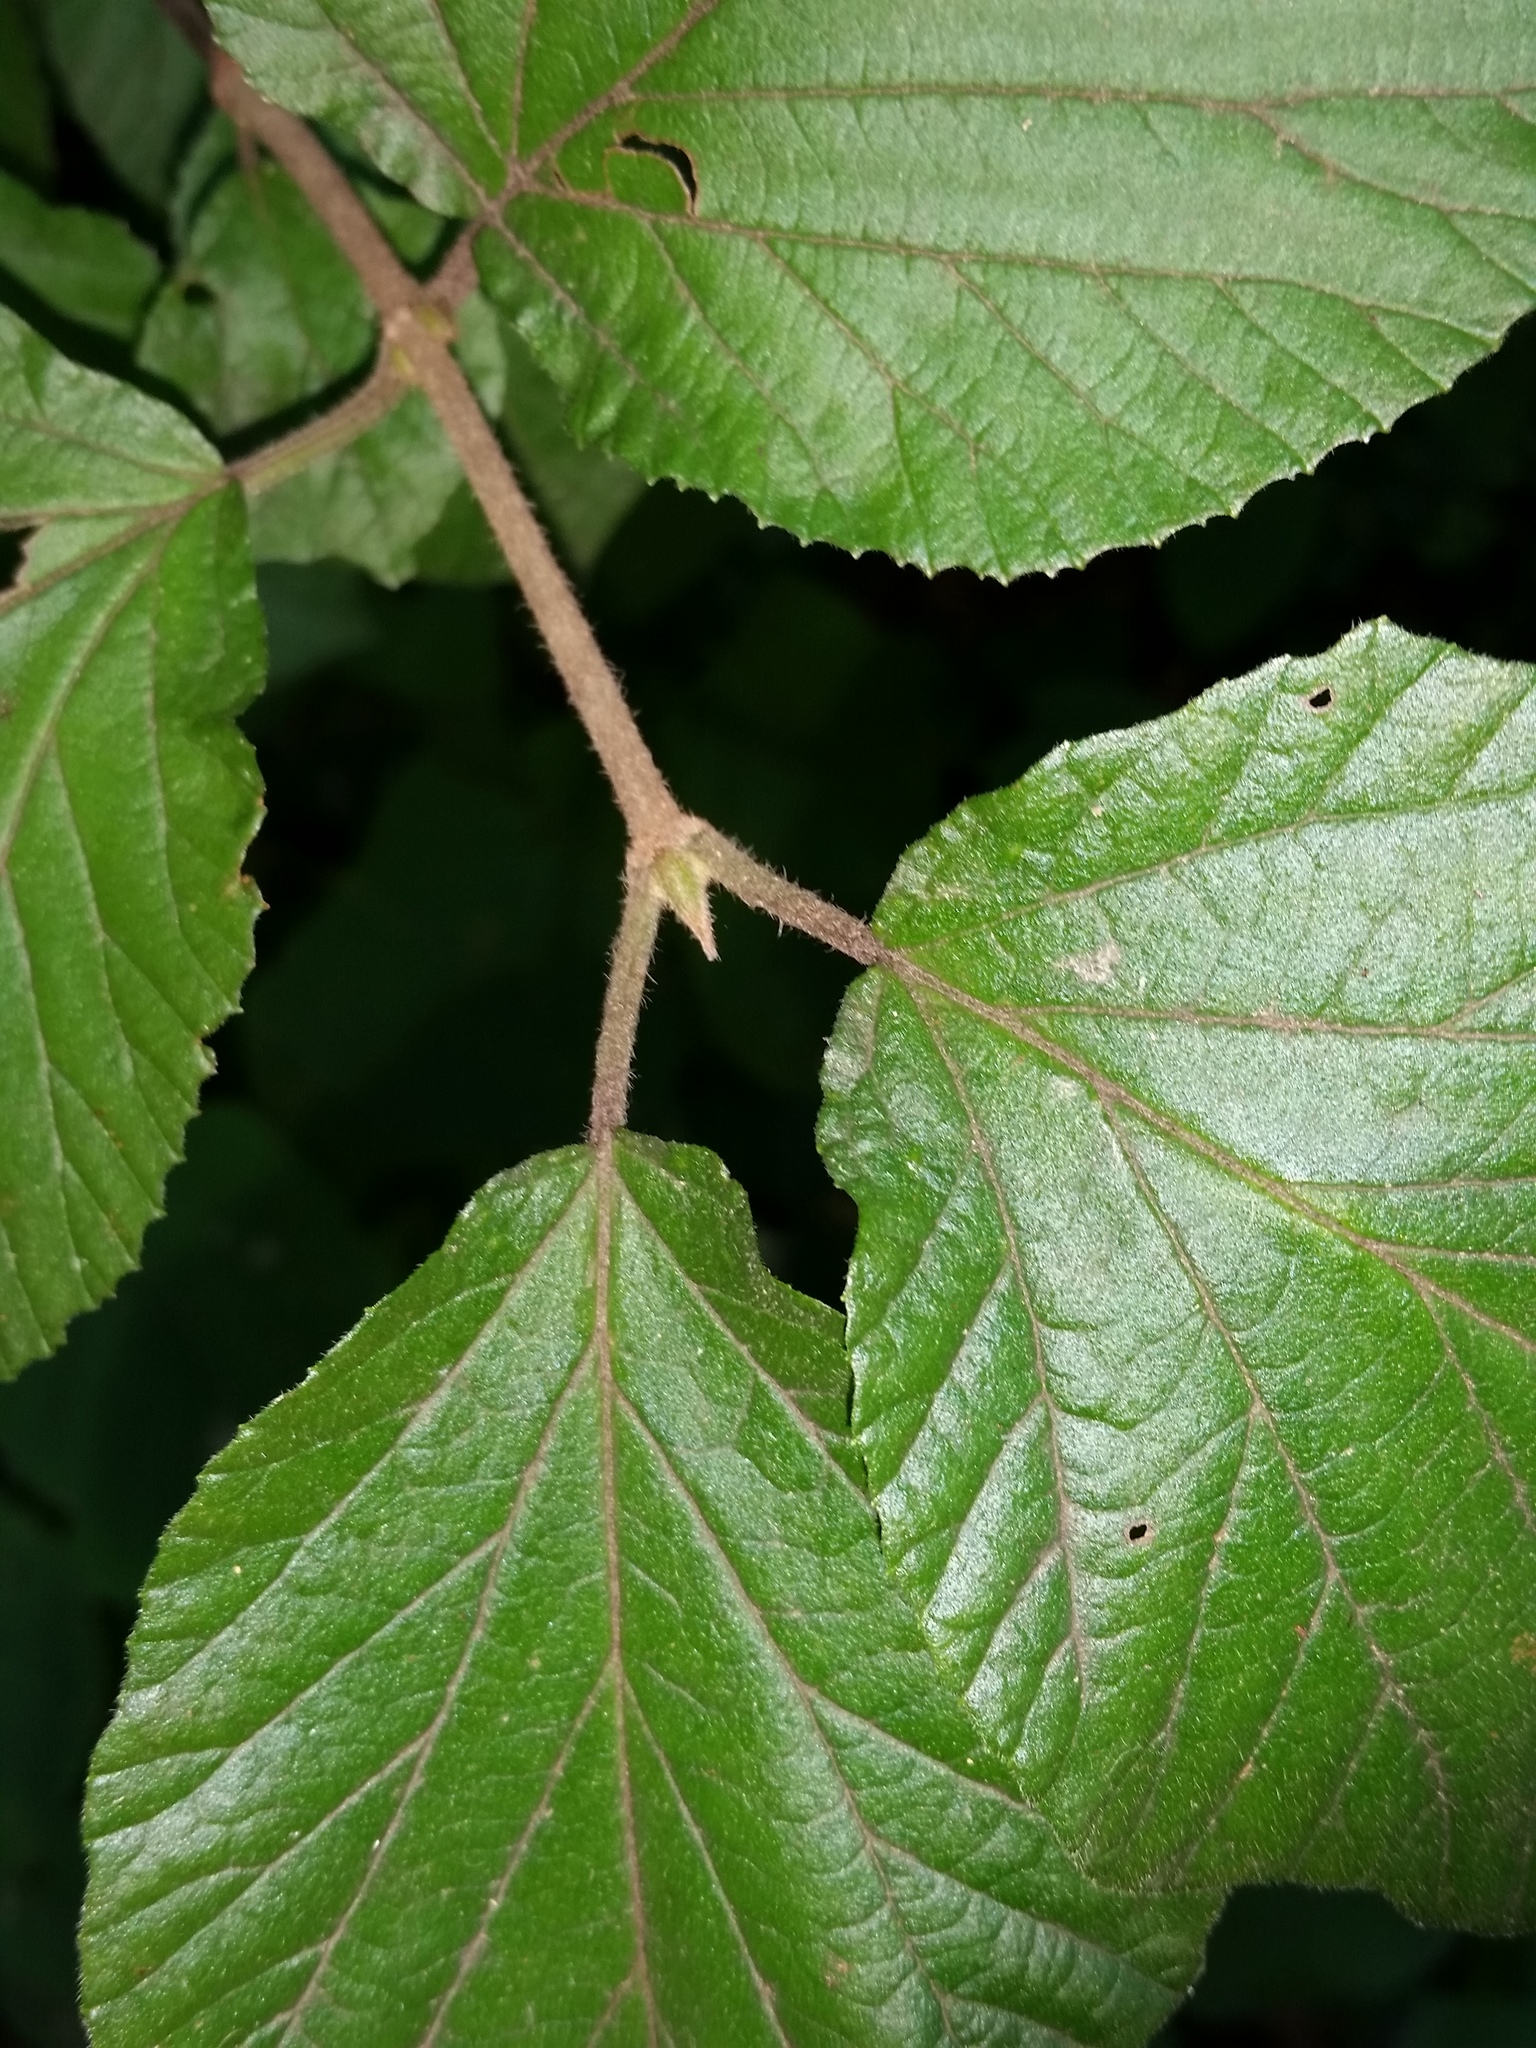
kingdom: Plantae
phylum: Tracheophyta
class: Magnoliopsida
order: Dipsacales
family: Viburnaceae
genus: Viburnum
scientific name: Viburnum dilatatum
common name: Linden arrowwood
